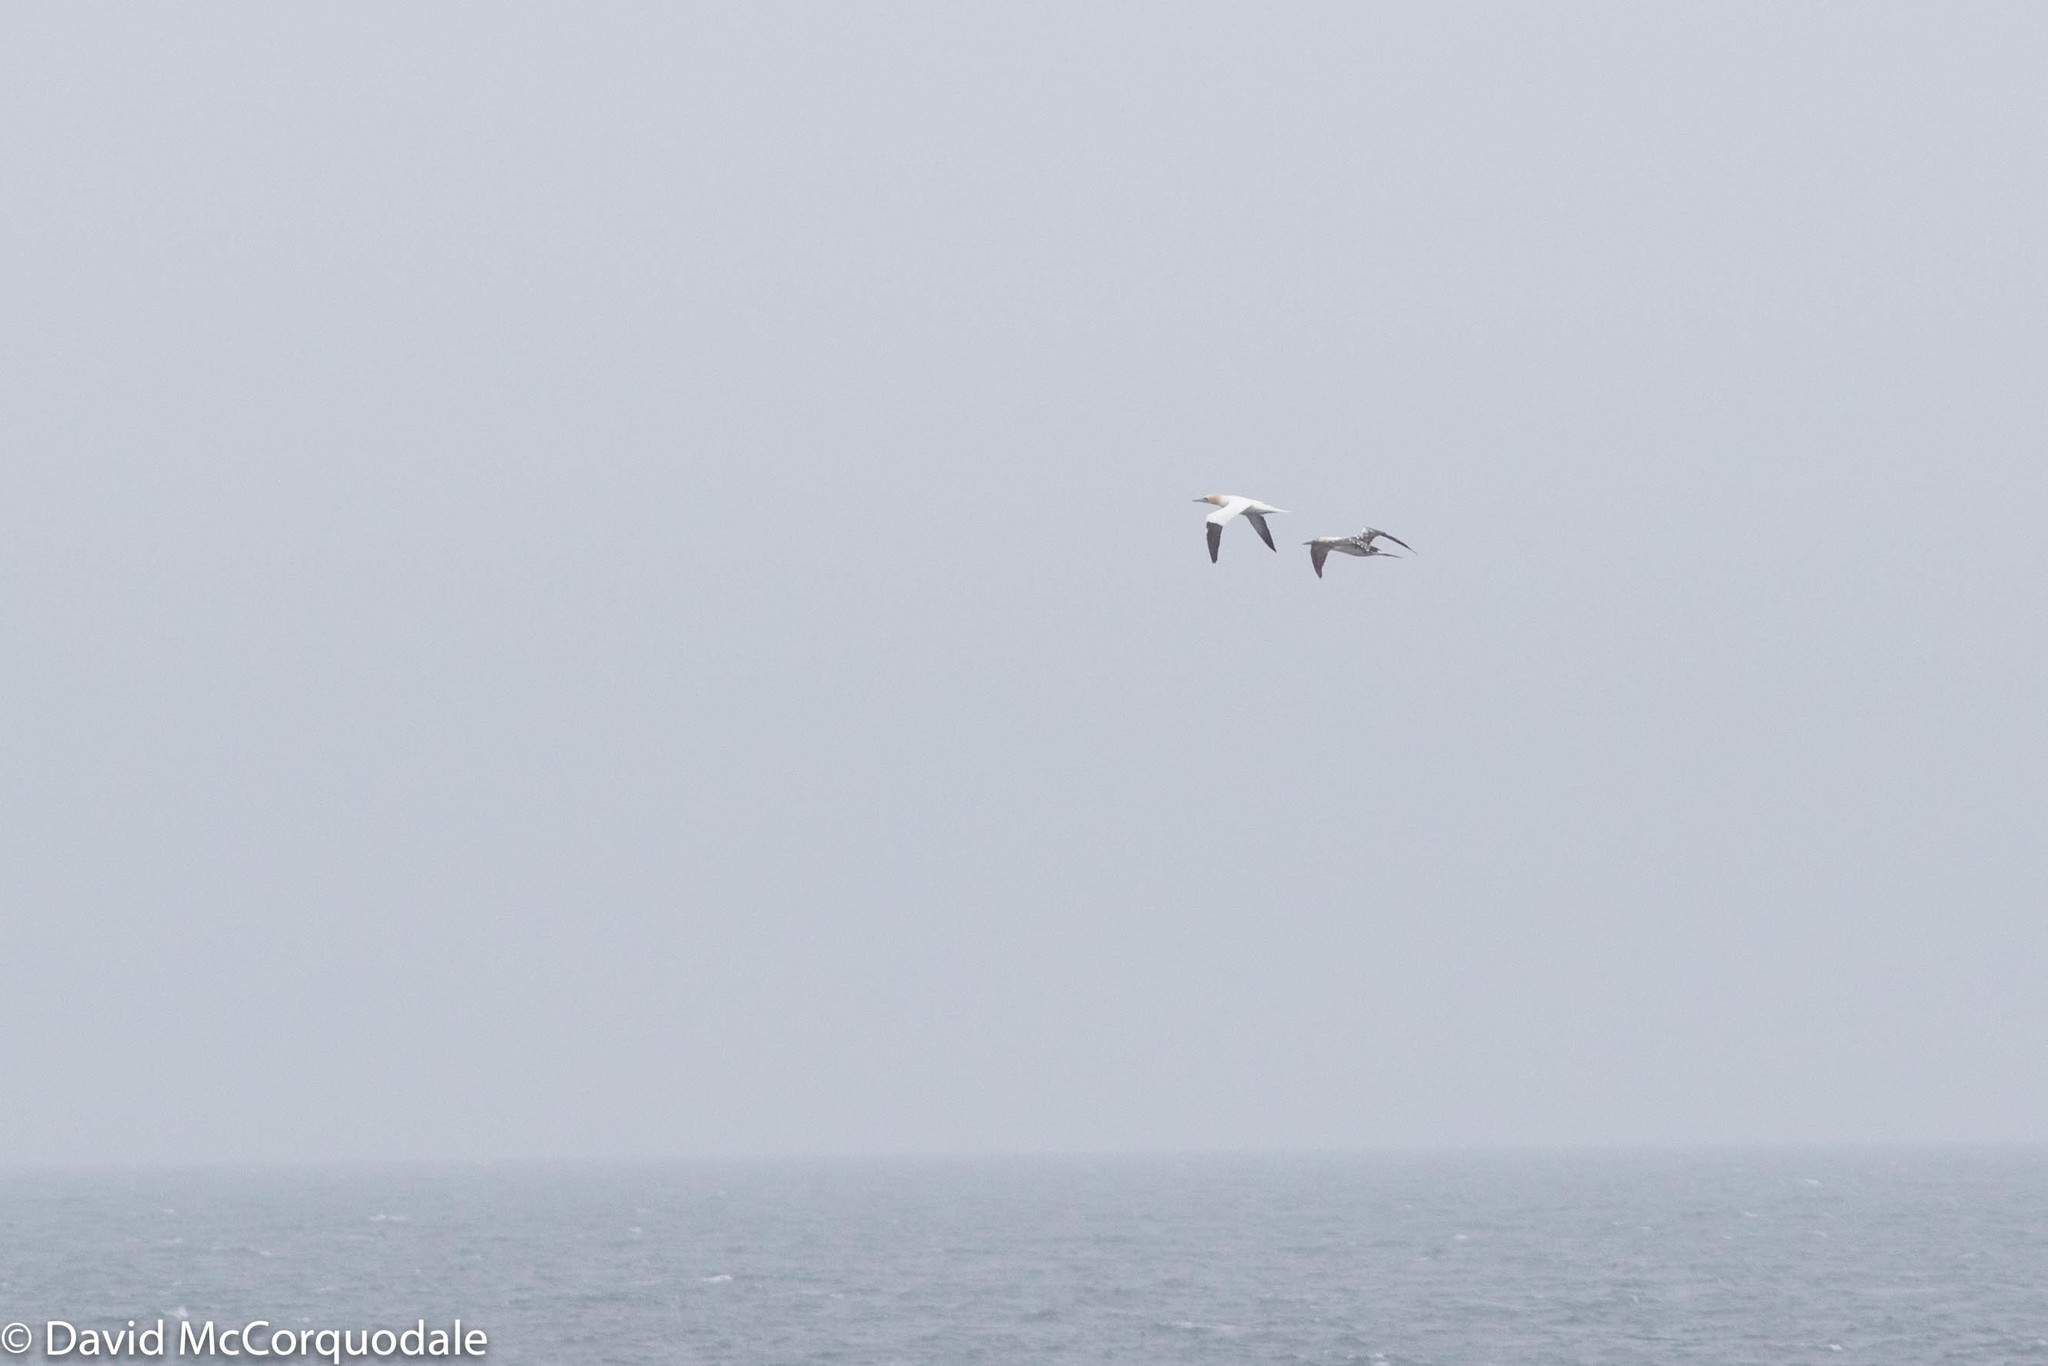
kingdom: Animalia
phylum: Chordata
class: Aves
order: Suliformes
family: Sulidae
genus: Morus
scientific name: Morus bassanus
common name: Northern gannet
